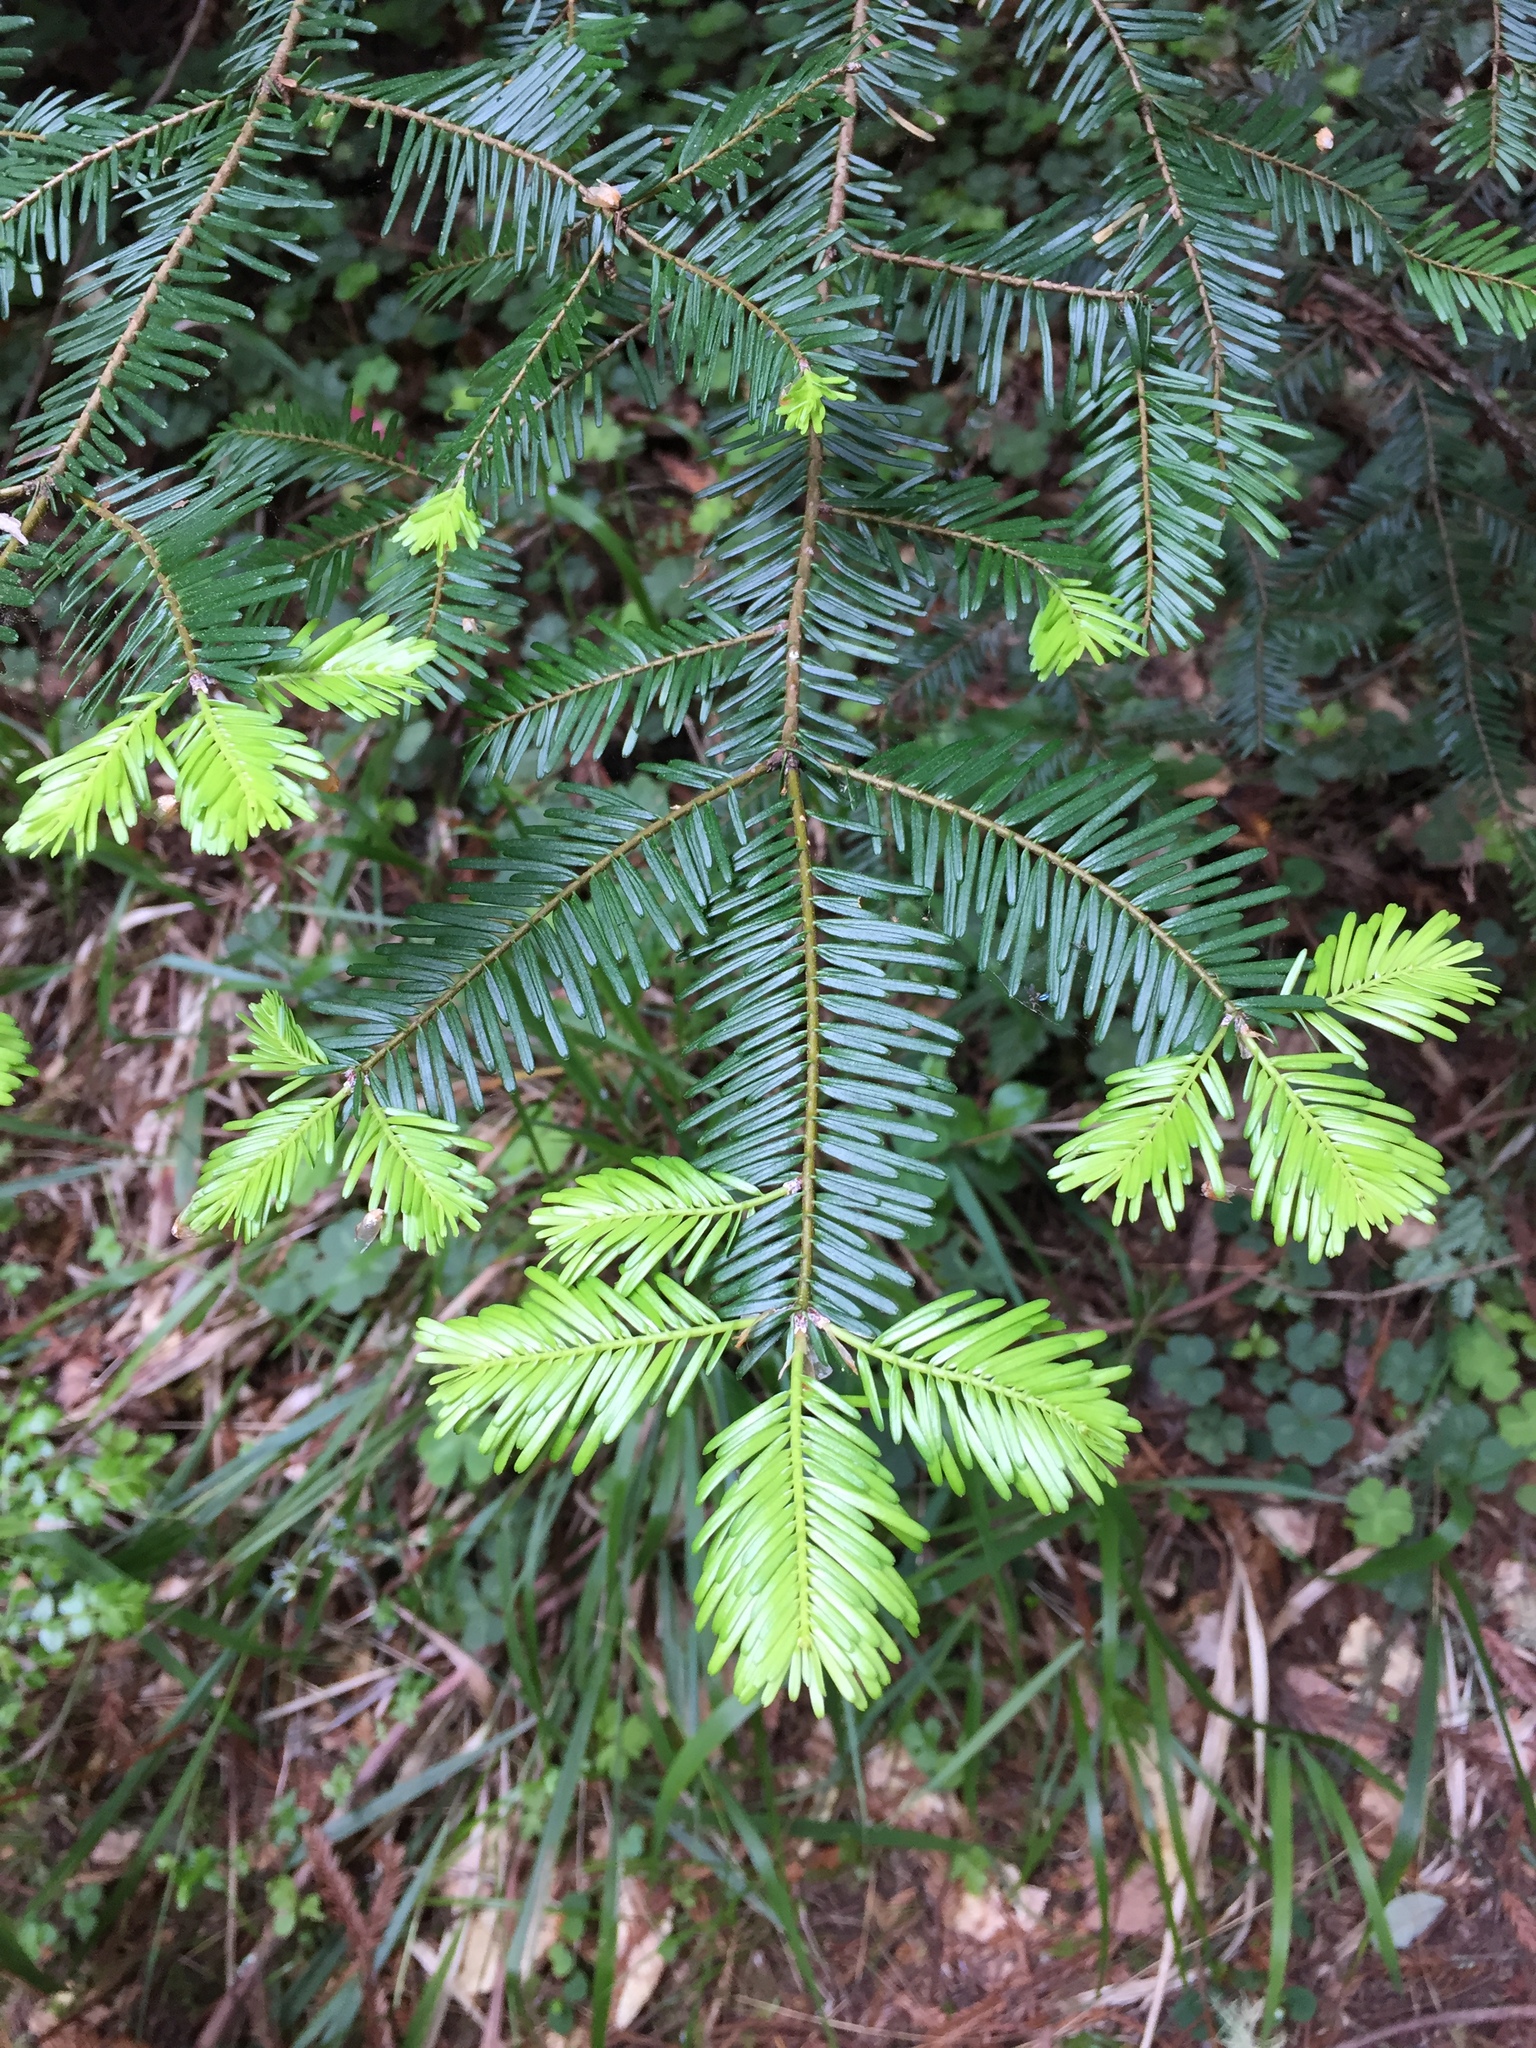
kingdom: Plantae
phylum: Tracheophyta
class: Pinopsida
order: Pinales
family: Cupressaceae
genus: Sequoia
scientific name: Sequoia sempervirens
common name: Coast redwood
